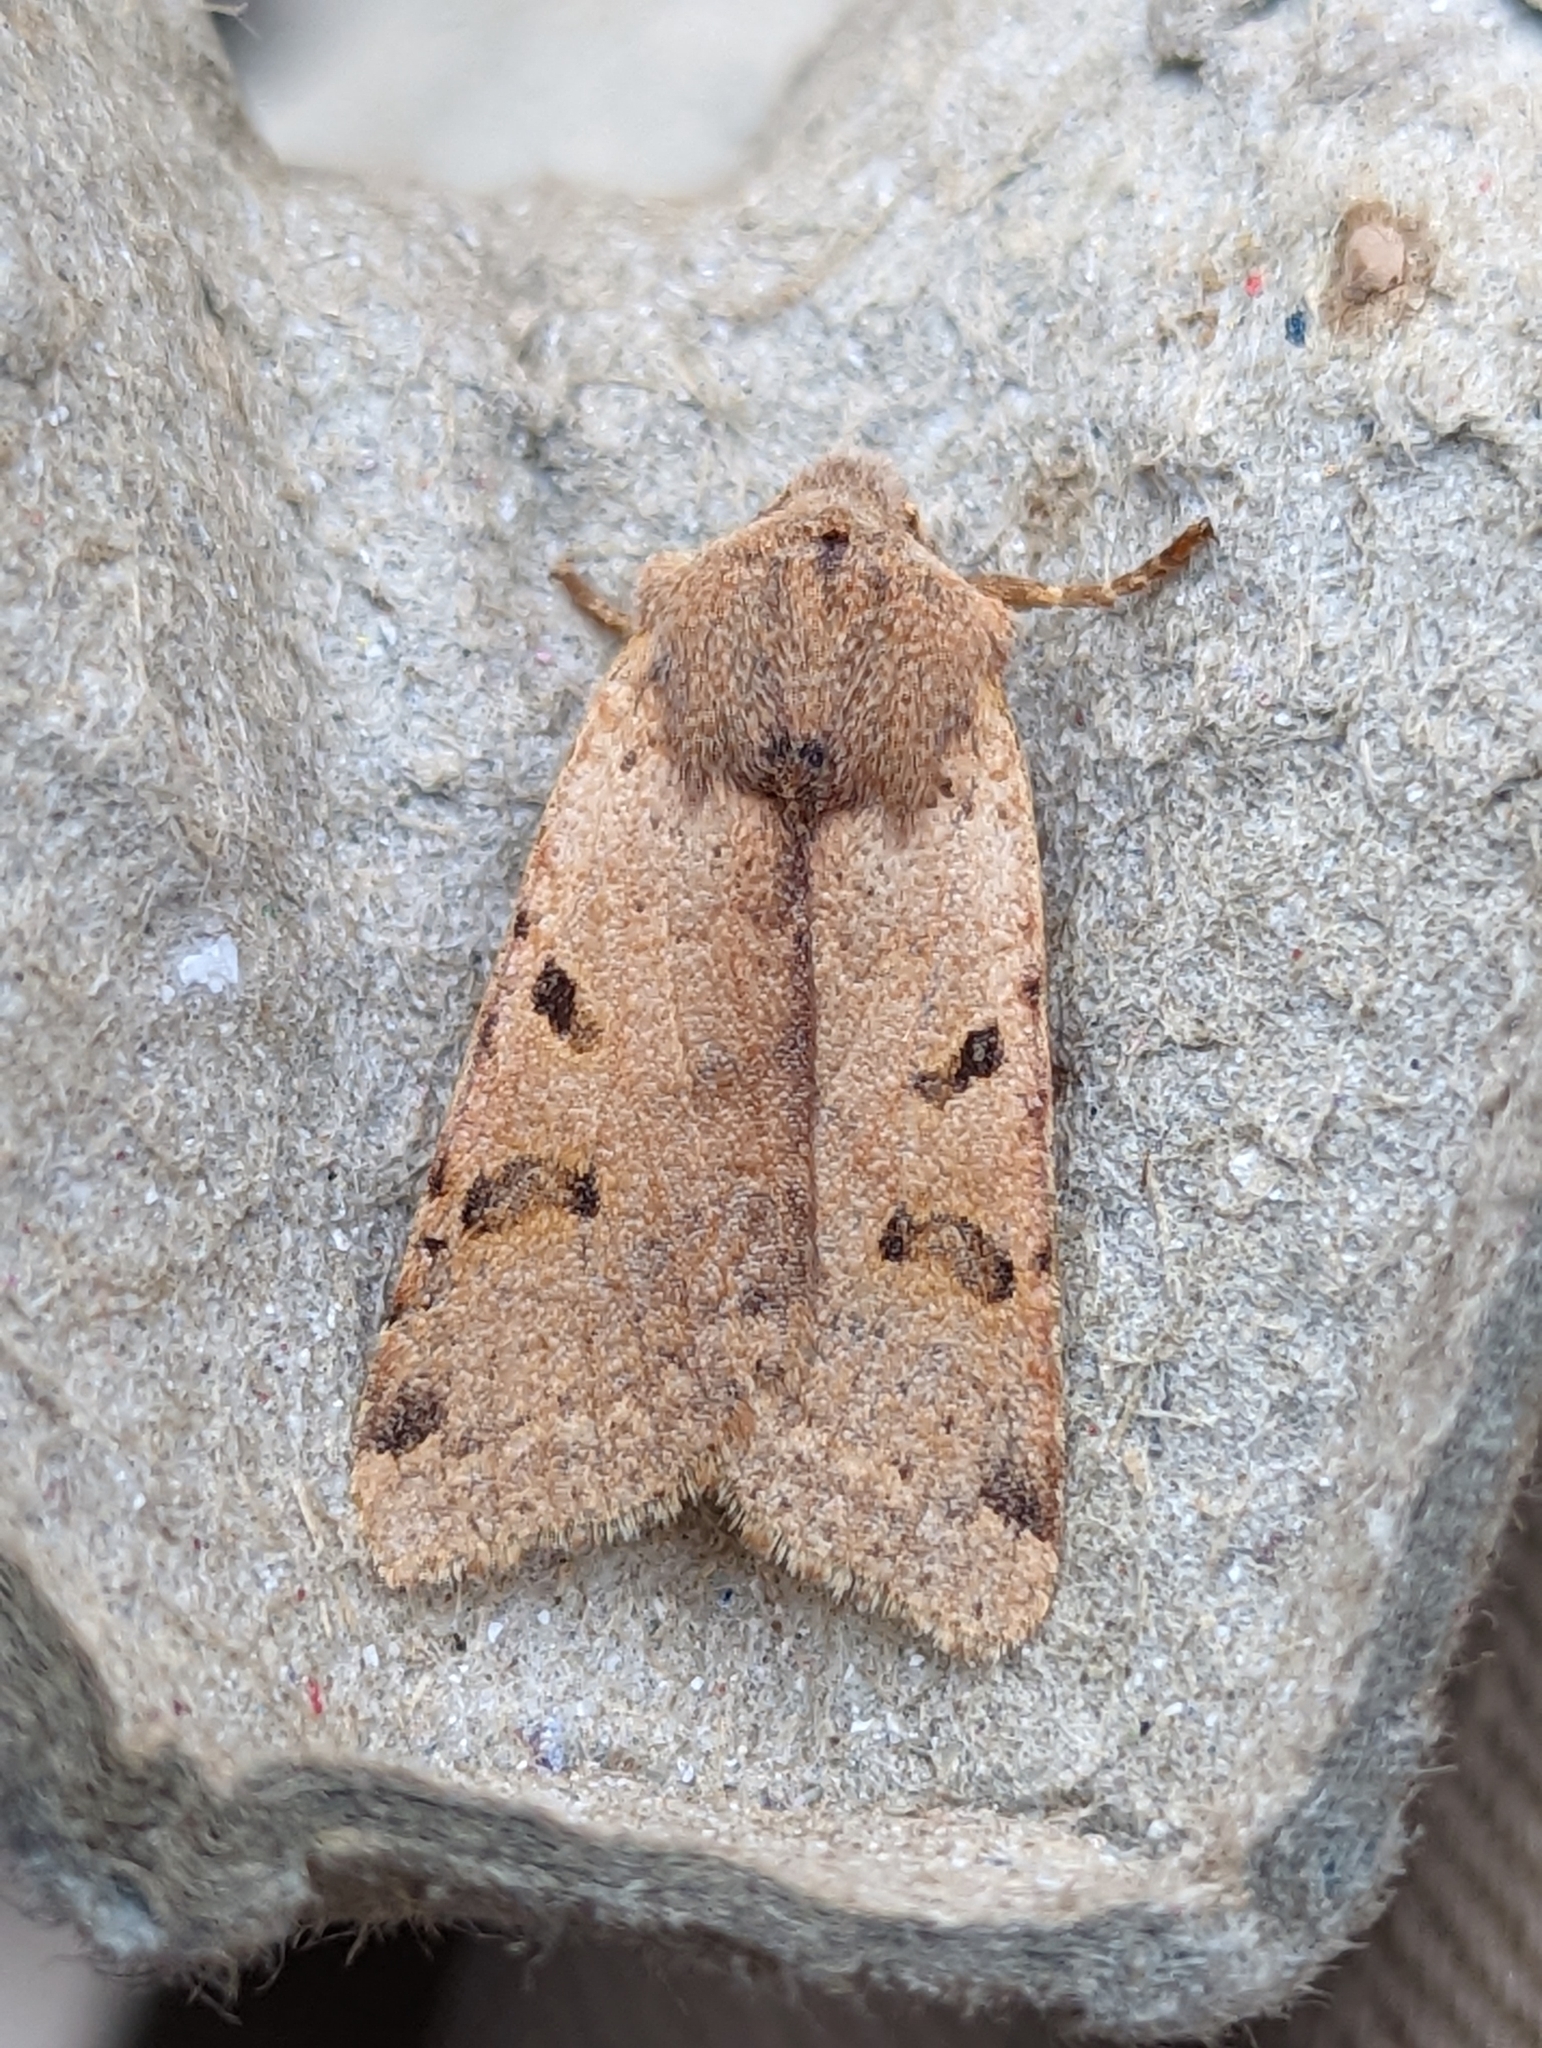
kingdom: Animalia
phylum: Arthropoda
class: Insecta
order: Lepidoptera
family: Noctuidae
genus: Agrochola
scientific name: Agrochola lychnidis
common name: Beaded chestnut
